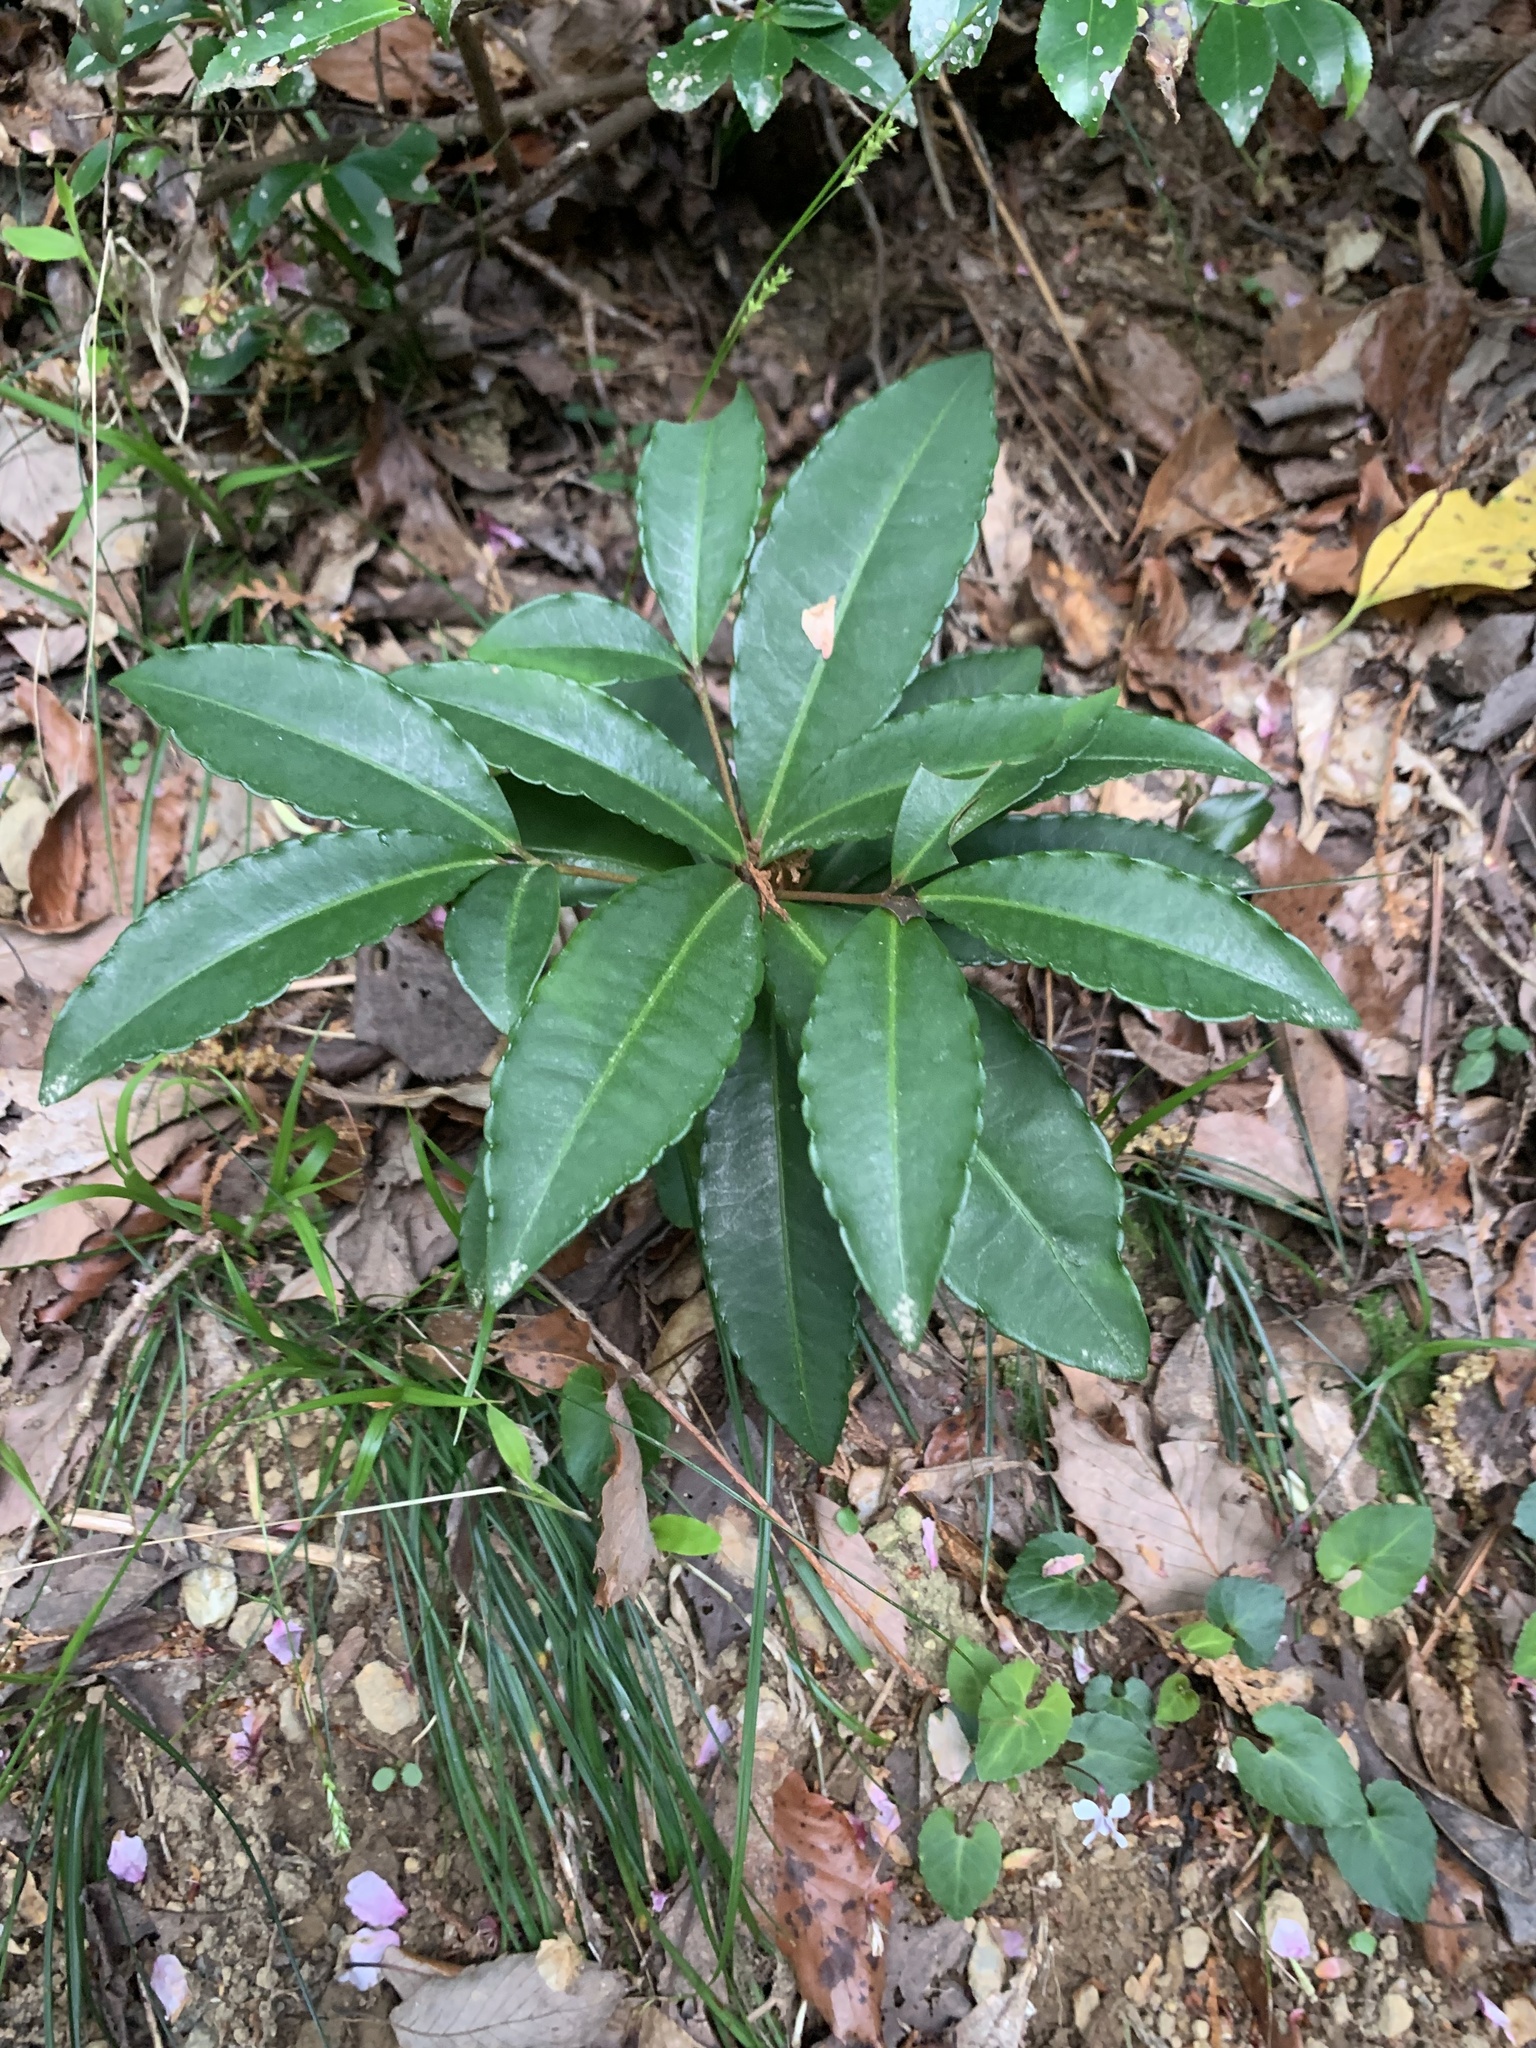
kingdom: Plantae
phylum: Tracheophyta
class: Magnoliopsida
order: Ericales
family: Primulaceae
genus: Ardisia
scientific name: Ardisia crenata
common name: Hen's eyes
